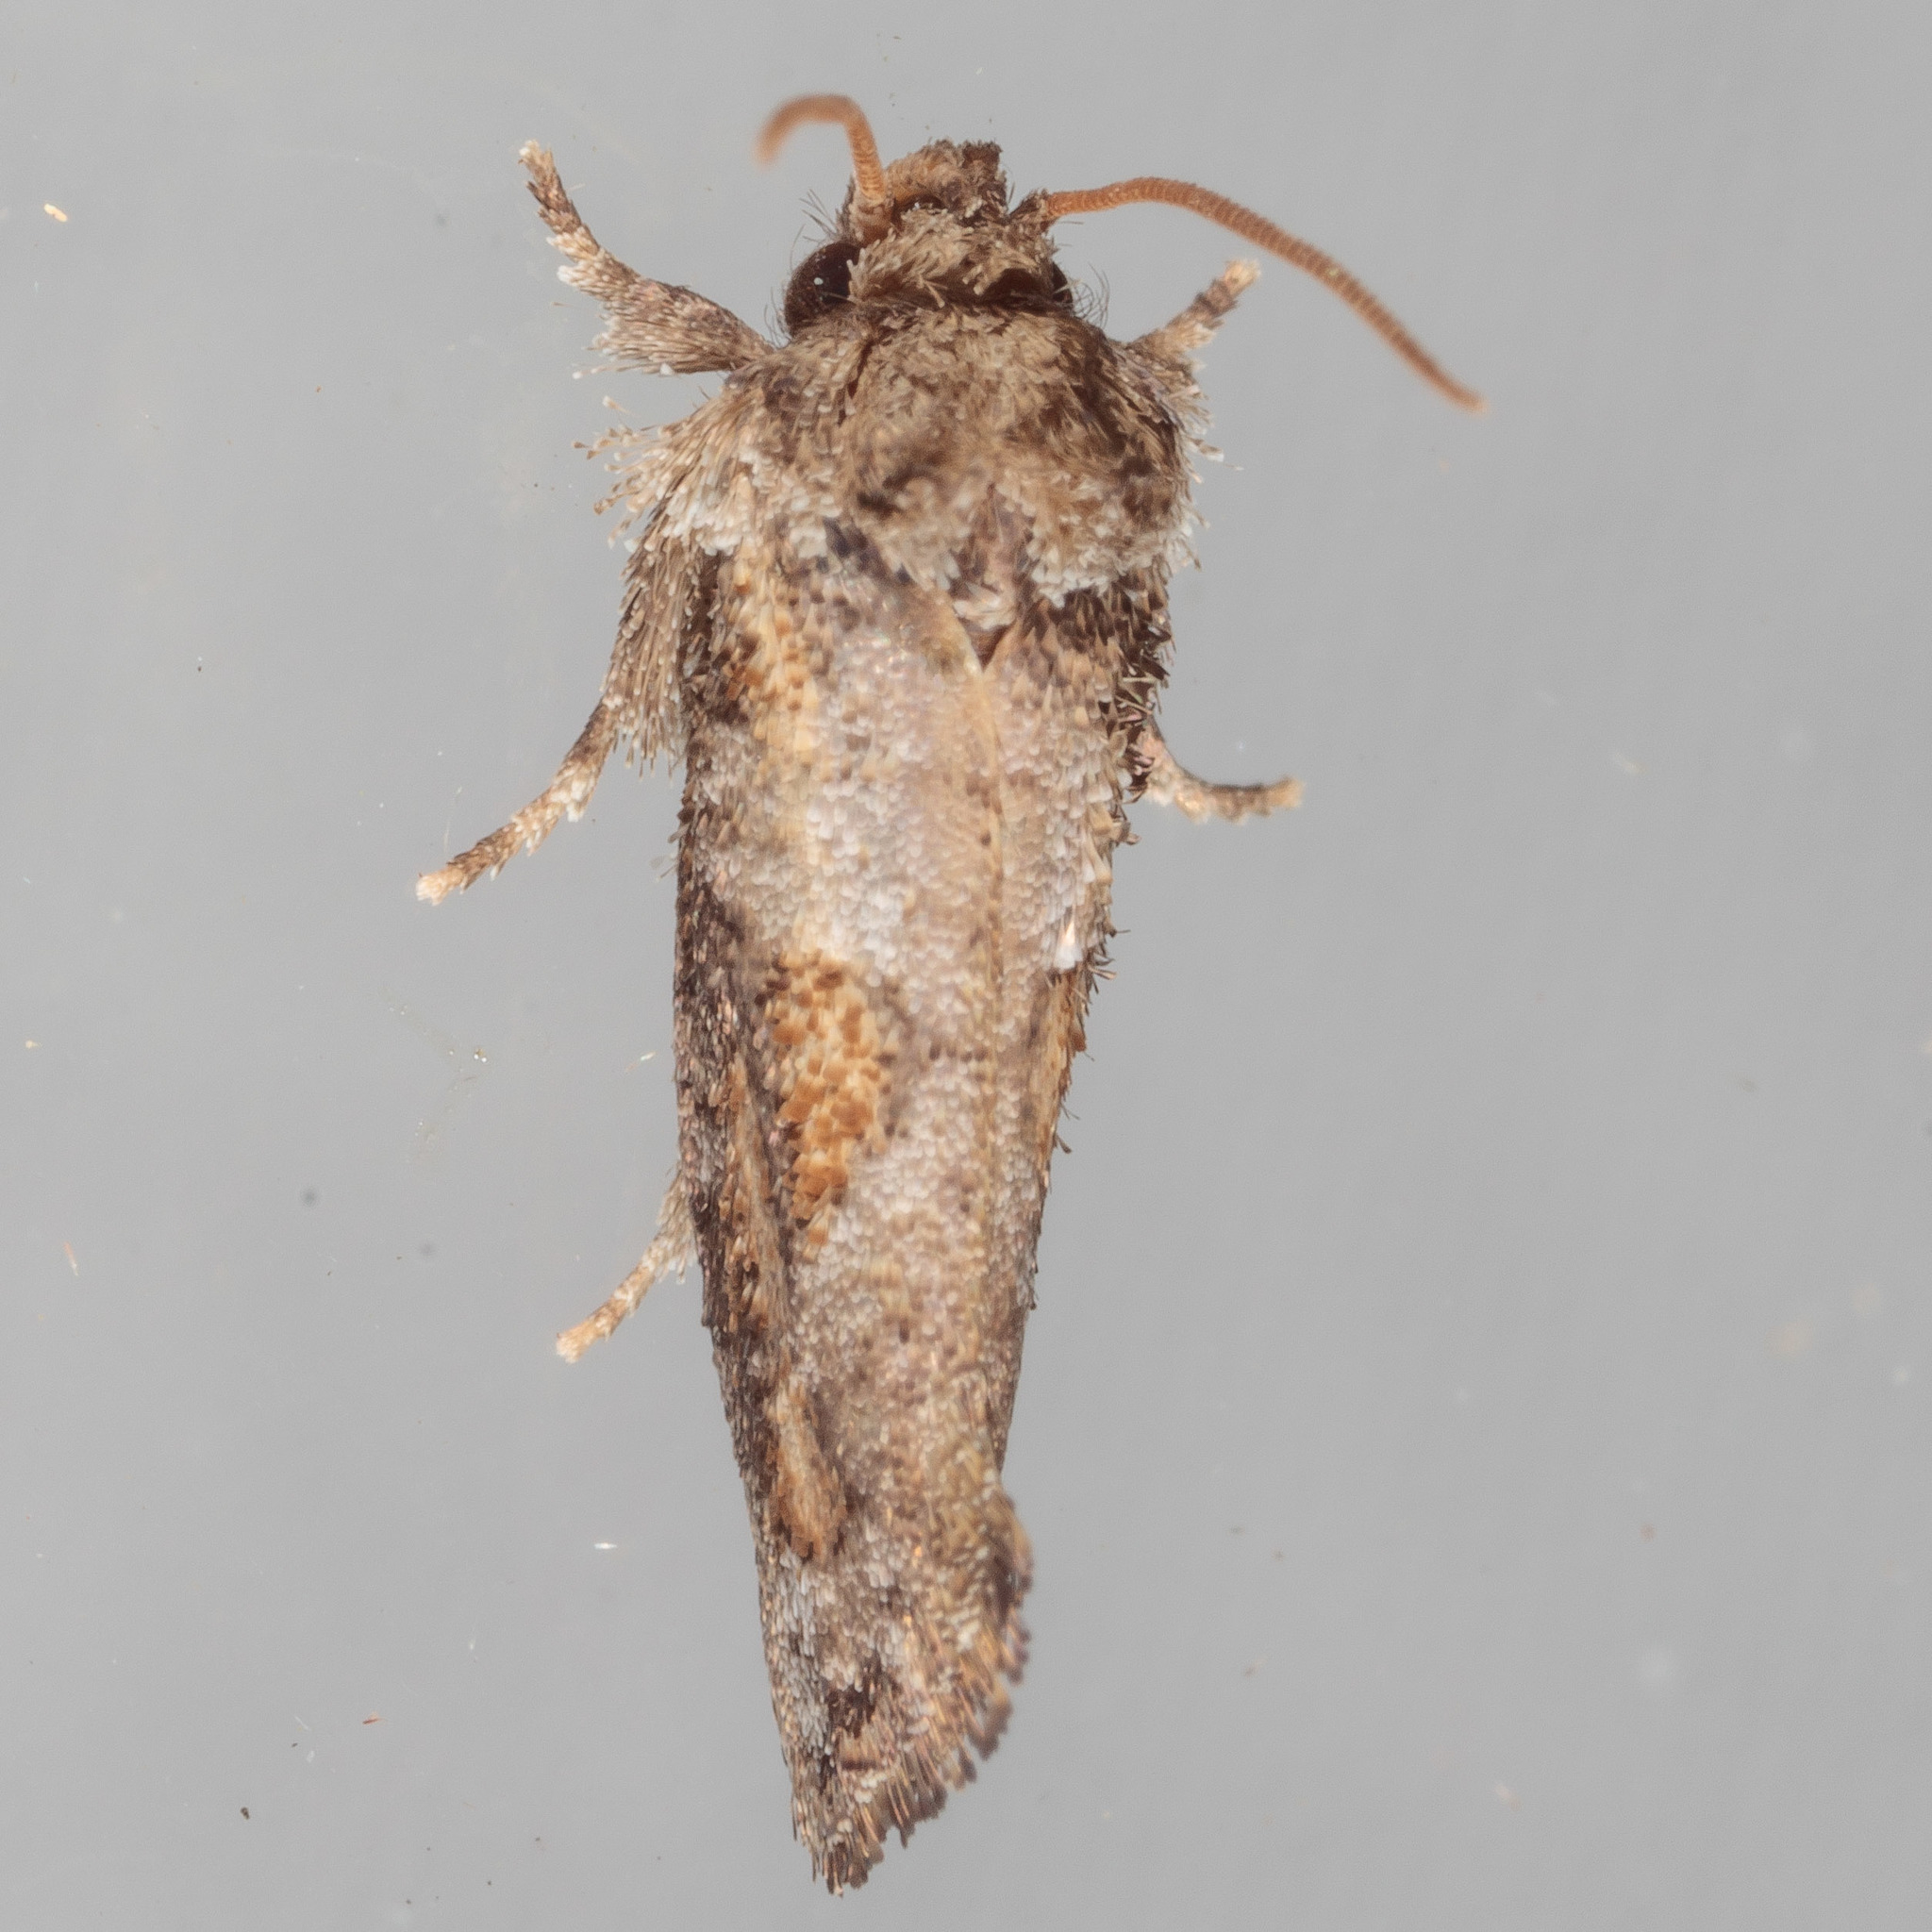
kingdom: Animalia
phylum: Arthropoda
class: Insecta
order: Lepidoptera
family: Tineidae
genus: Acrolophus
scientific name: Acrolophus piger
